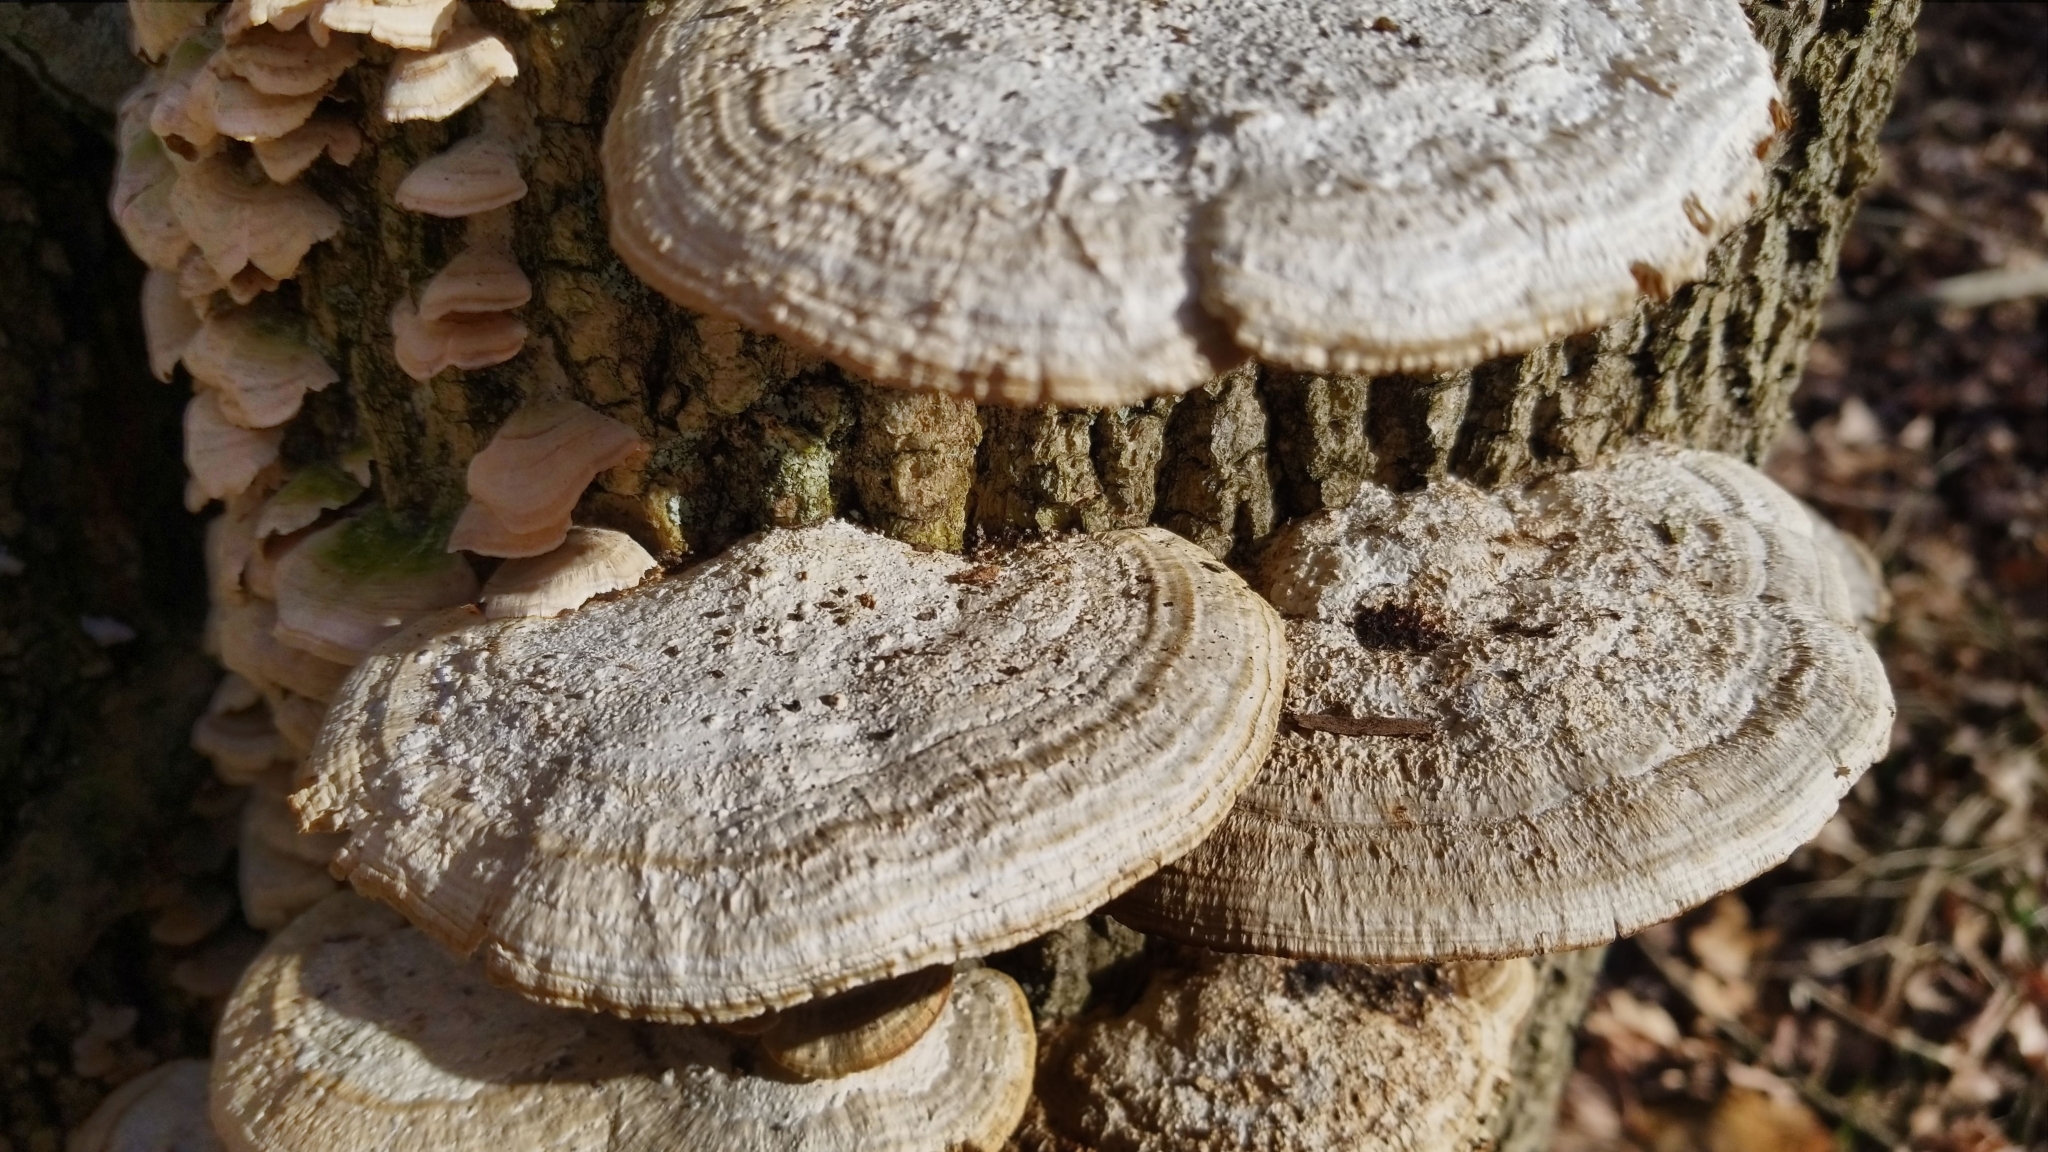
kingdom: Fungi
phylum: Basidiomycota
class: Agaricomycetes
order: Polyporales
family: Polyporaceae
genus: Daedaleopsis
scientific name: Daedaleopsis confragosa
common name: Blushing bracket
